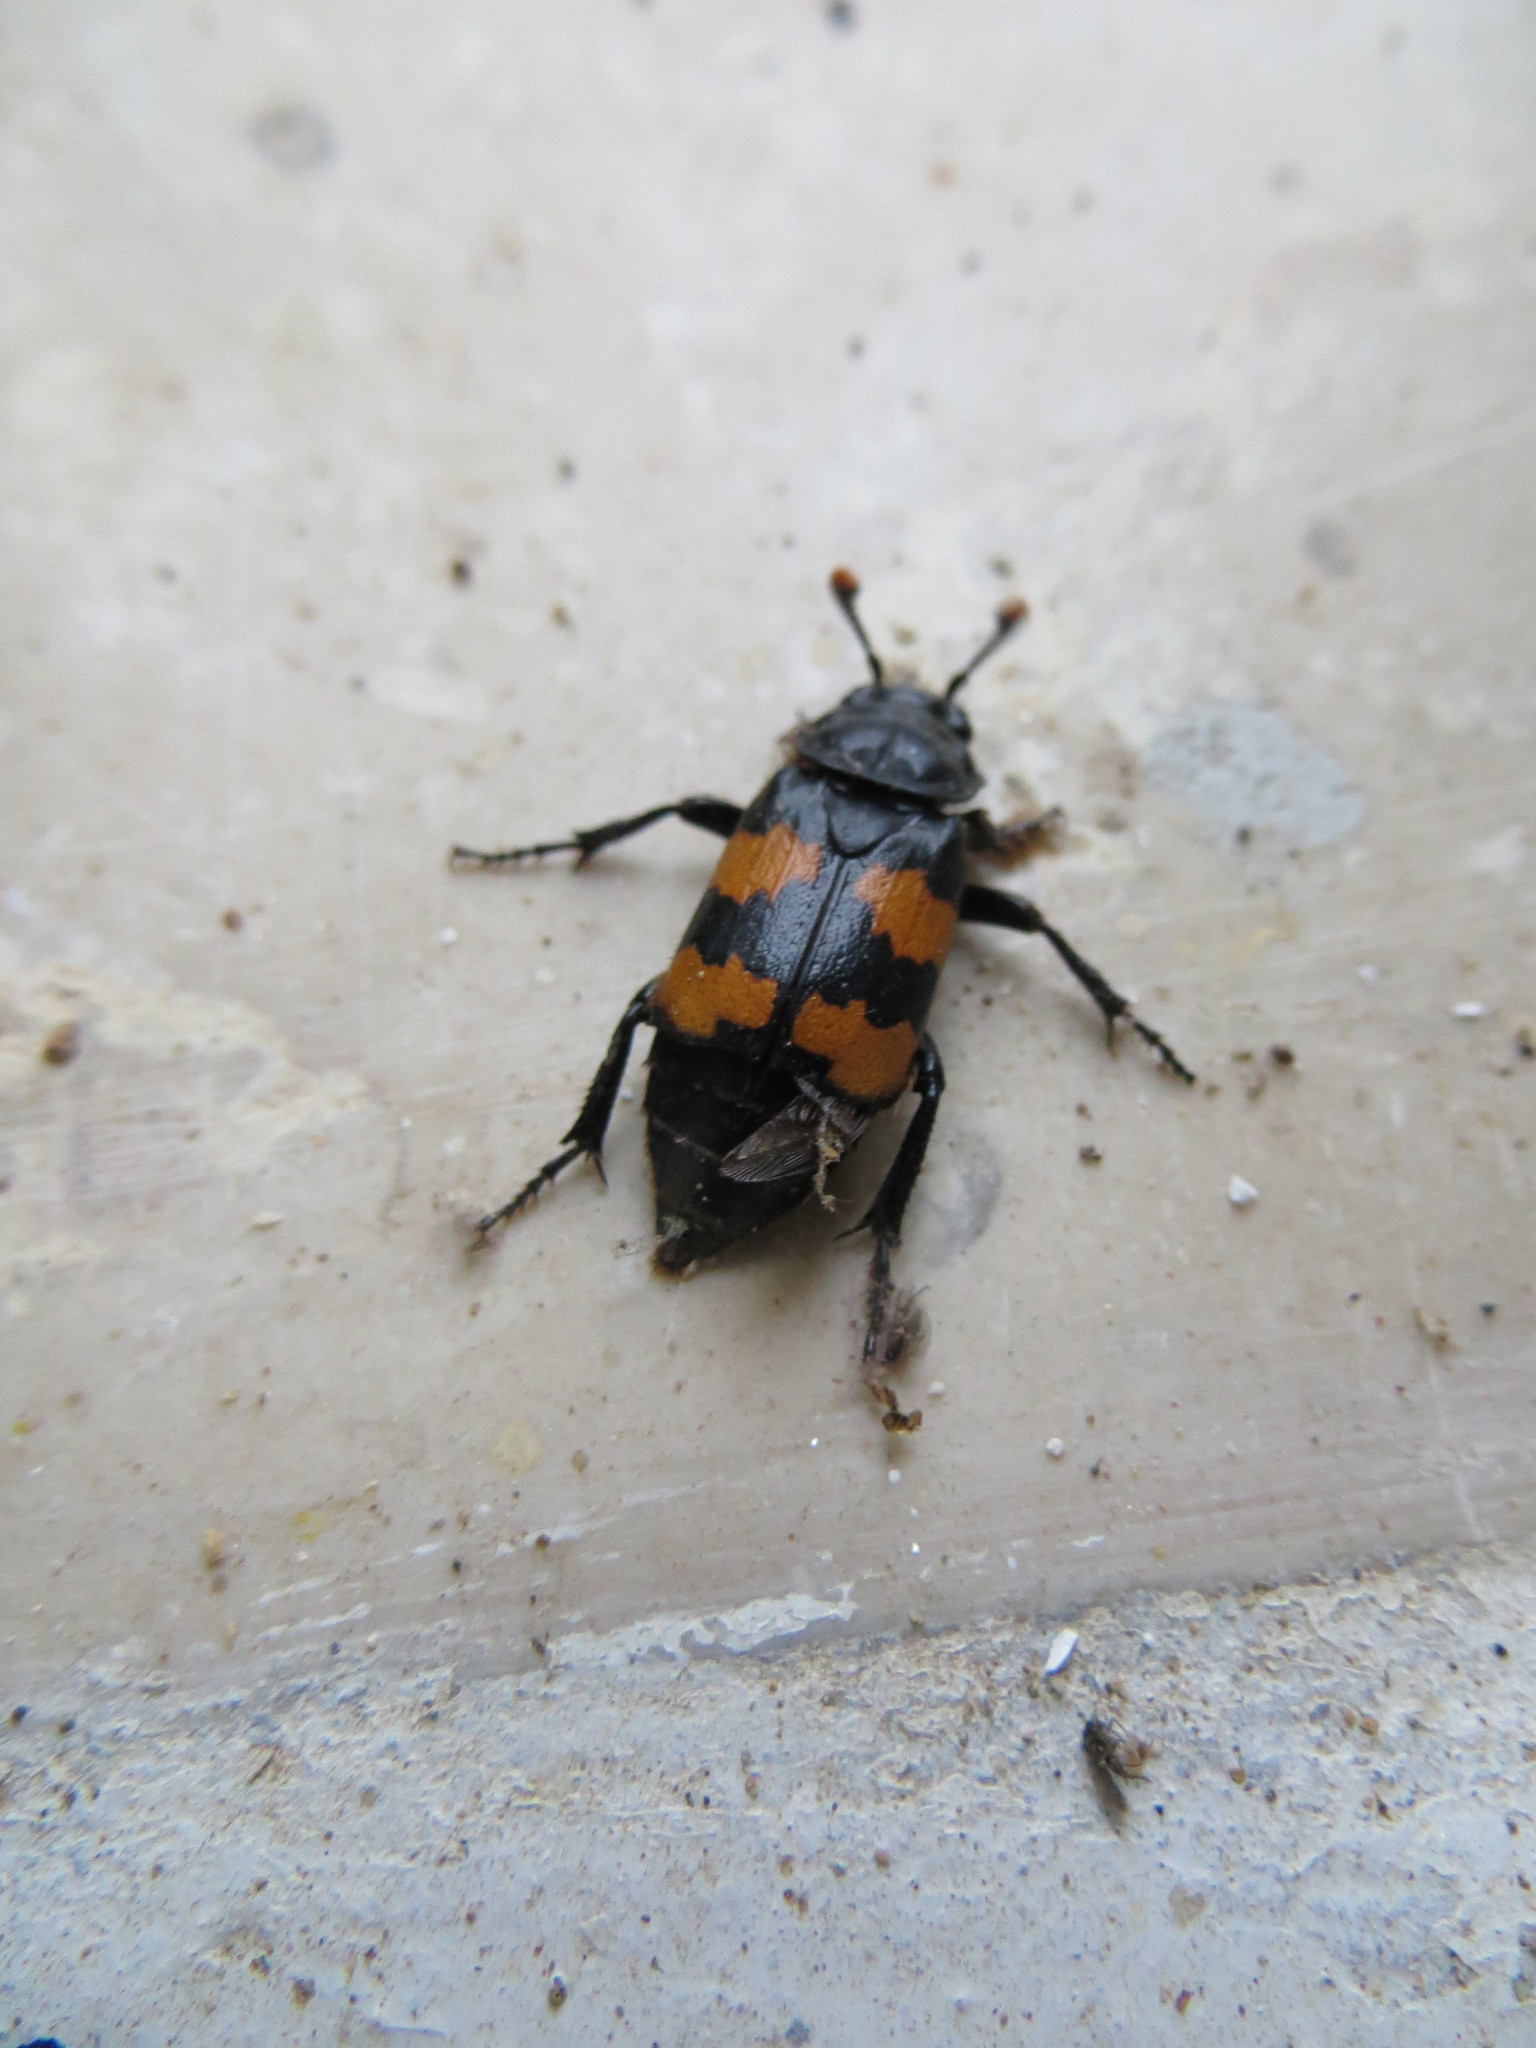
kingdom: Animalia
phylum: Arthropoda
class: Insecta
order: Coleoptera
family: Staphylinidae
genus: Nicrophorus
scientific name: Nicrophorus interruptus
